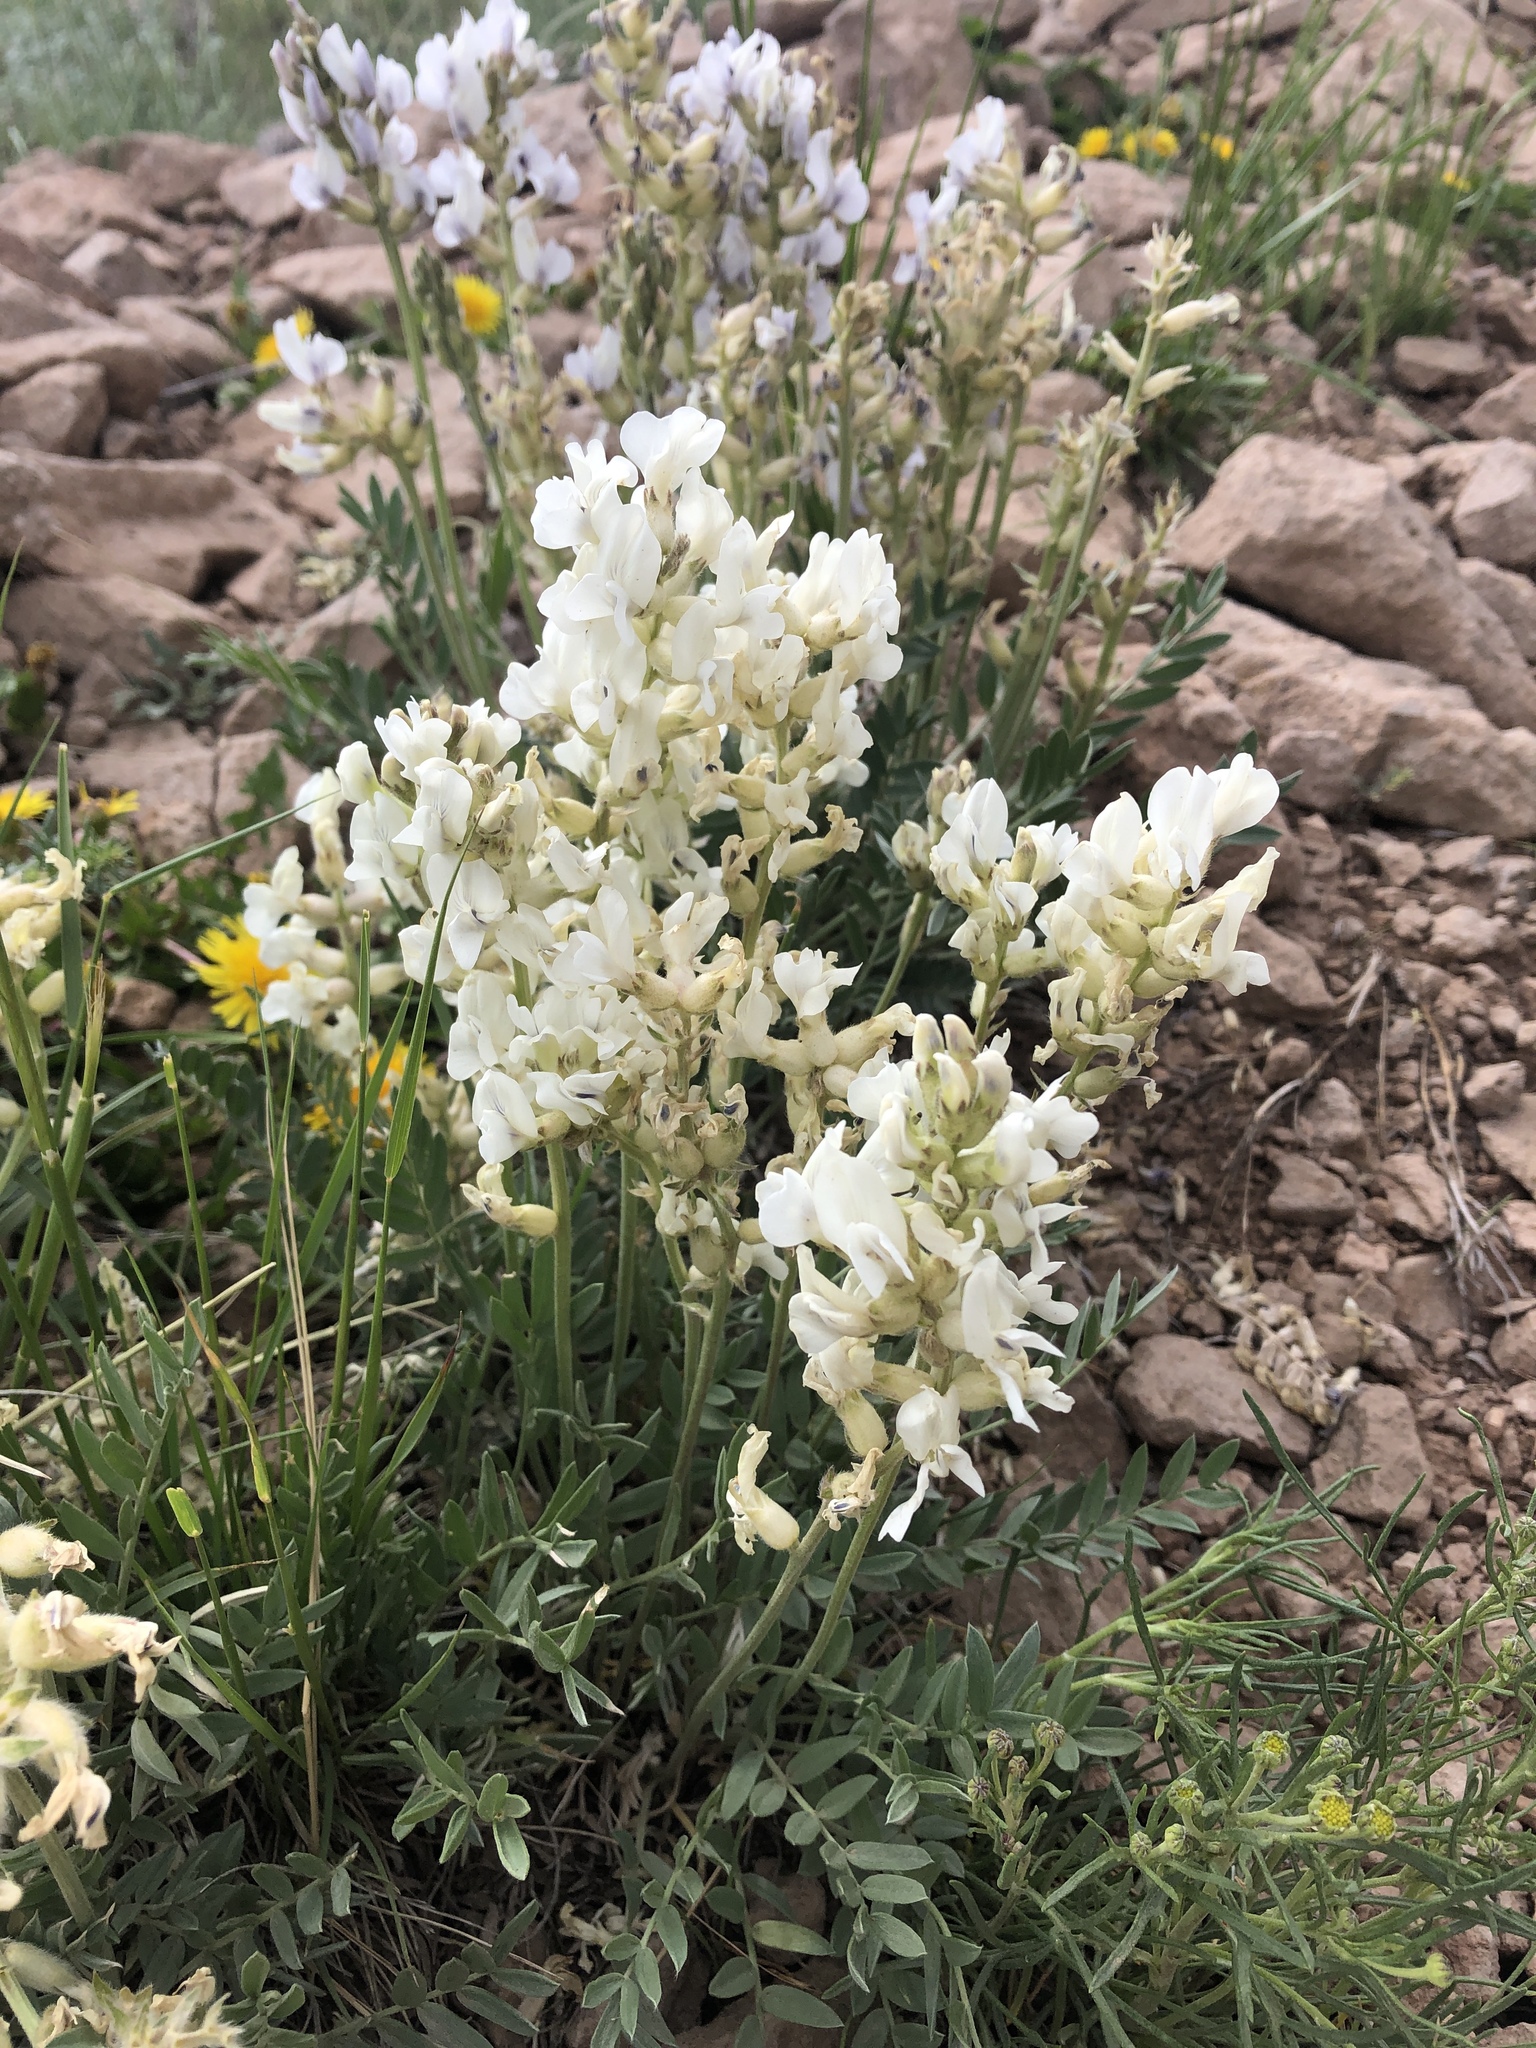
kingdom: Plantae
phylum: Tracheophyta
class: Magnoliopsida
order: Fabales
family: Fabaceae
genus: Oxytropis
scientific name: Oxytropis sericea
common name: Silky locoweed
